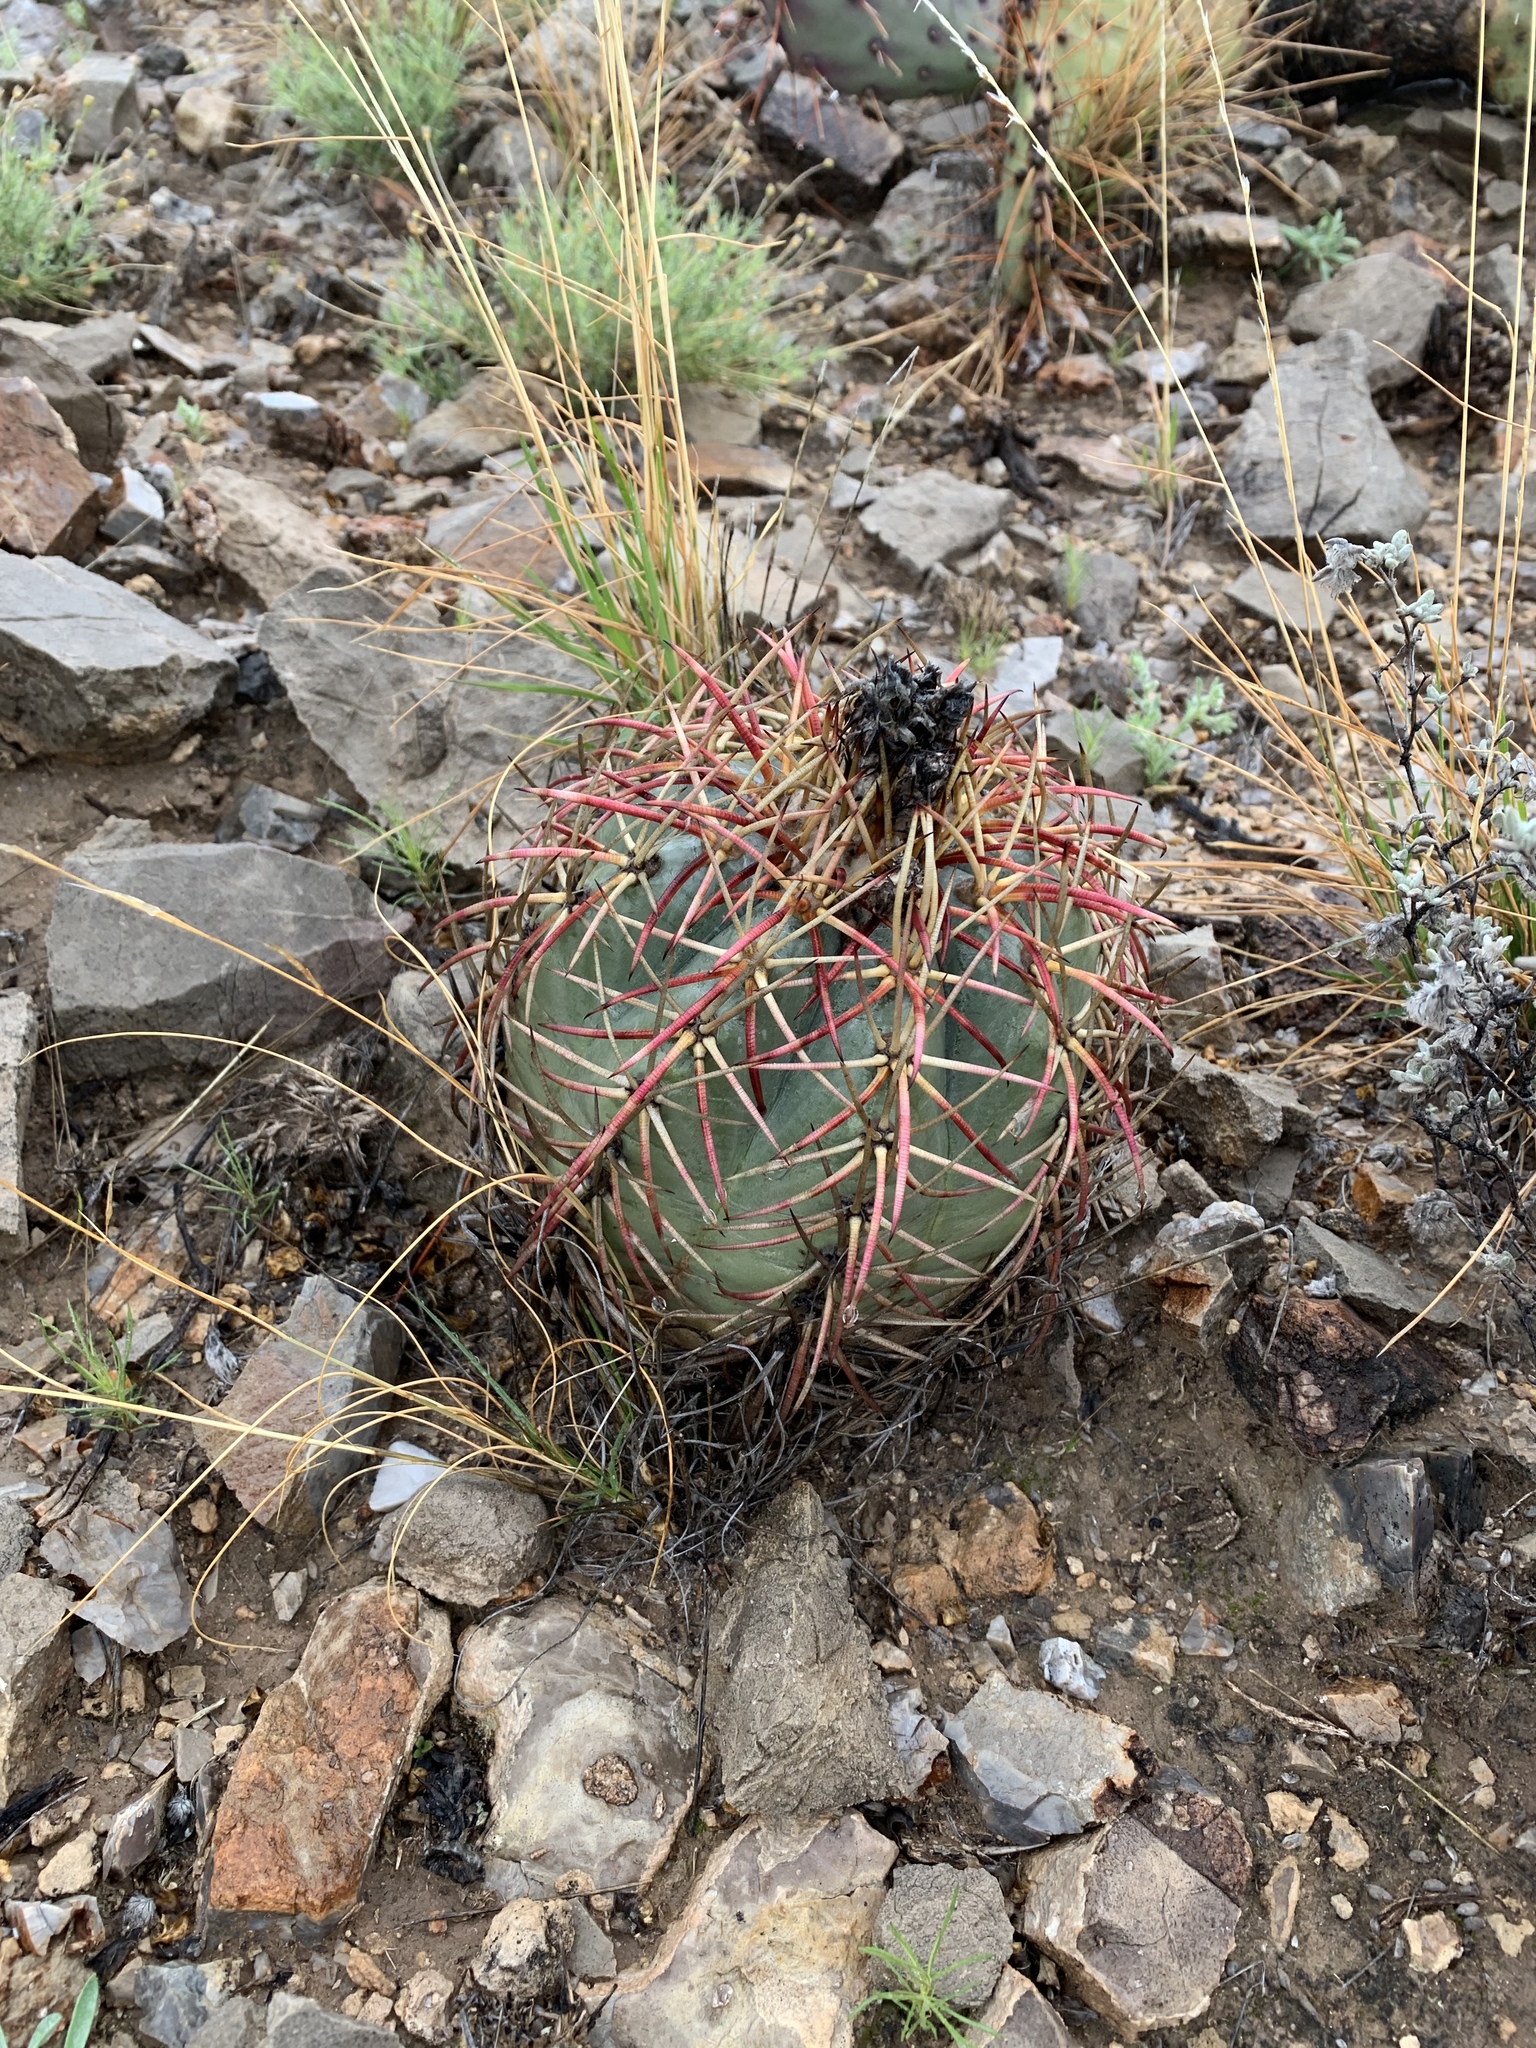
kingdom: Plantae
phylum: Tracheophyta
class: Magnoliopsida
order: Caryophyllales
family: Cactaceae
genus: Echinocactus
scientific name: Echinocactus horizonthalonius
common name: Devilshead
